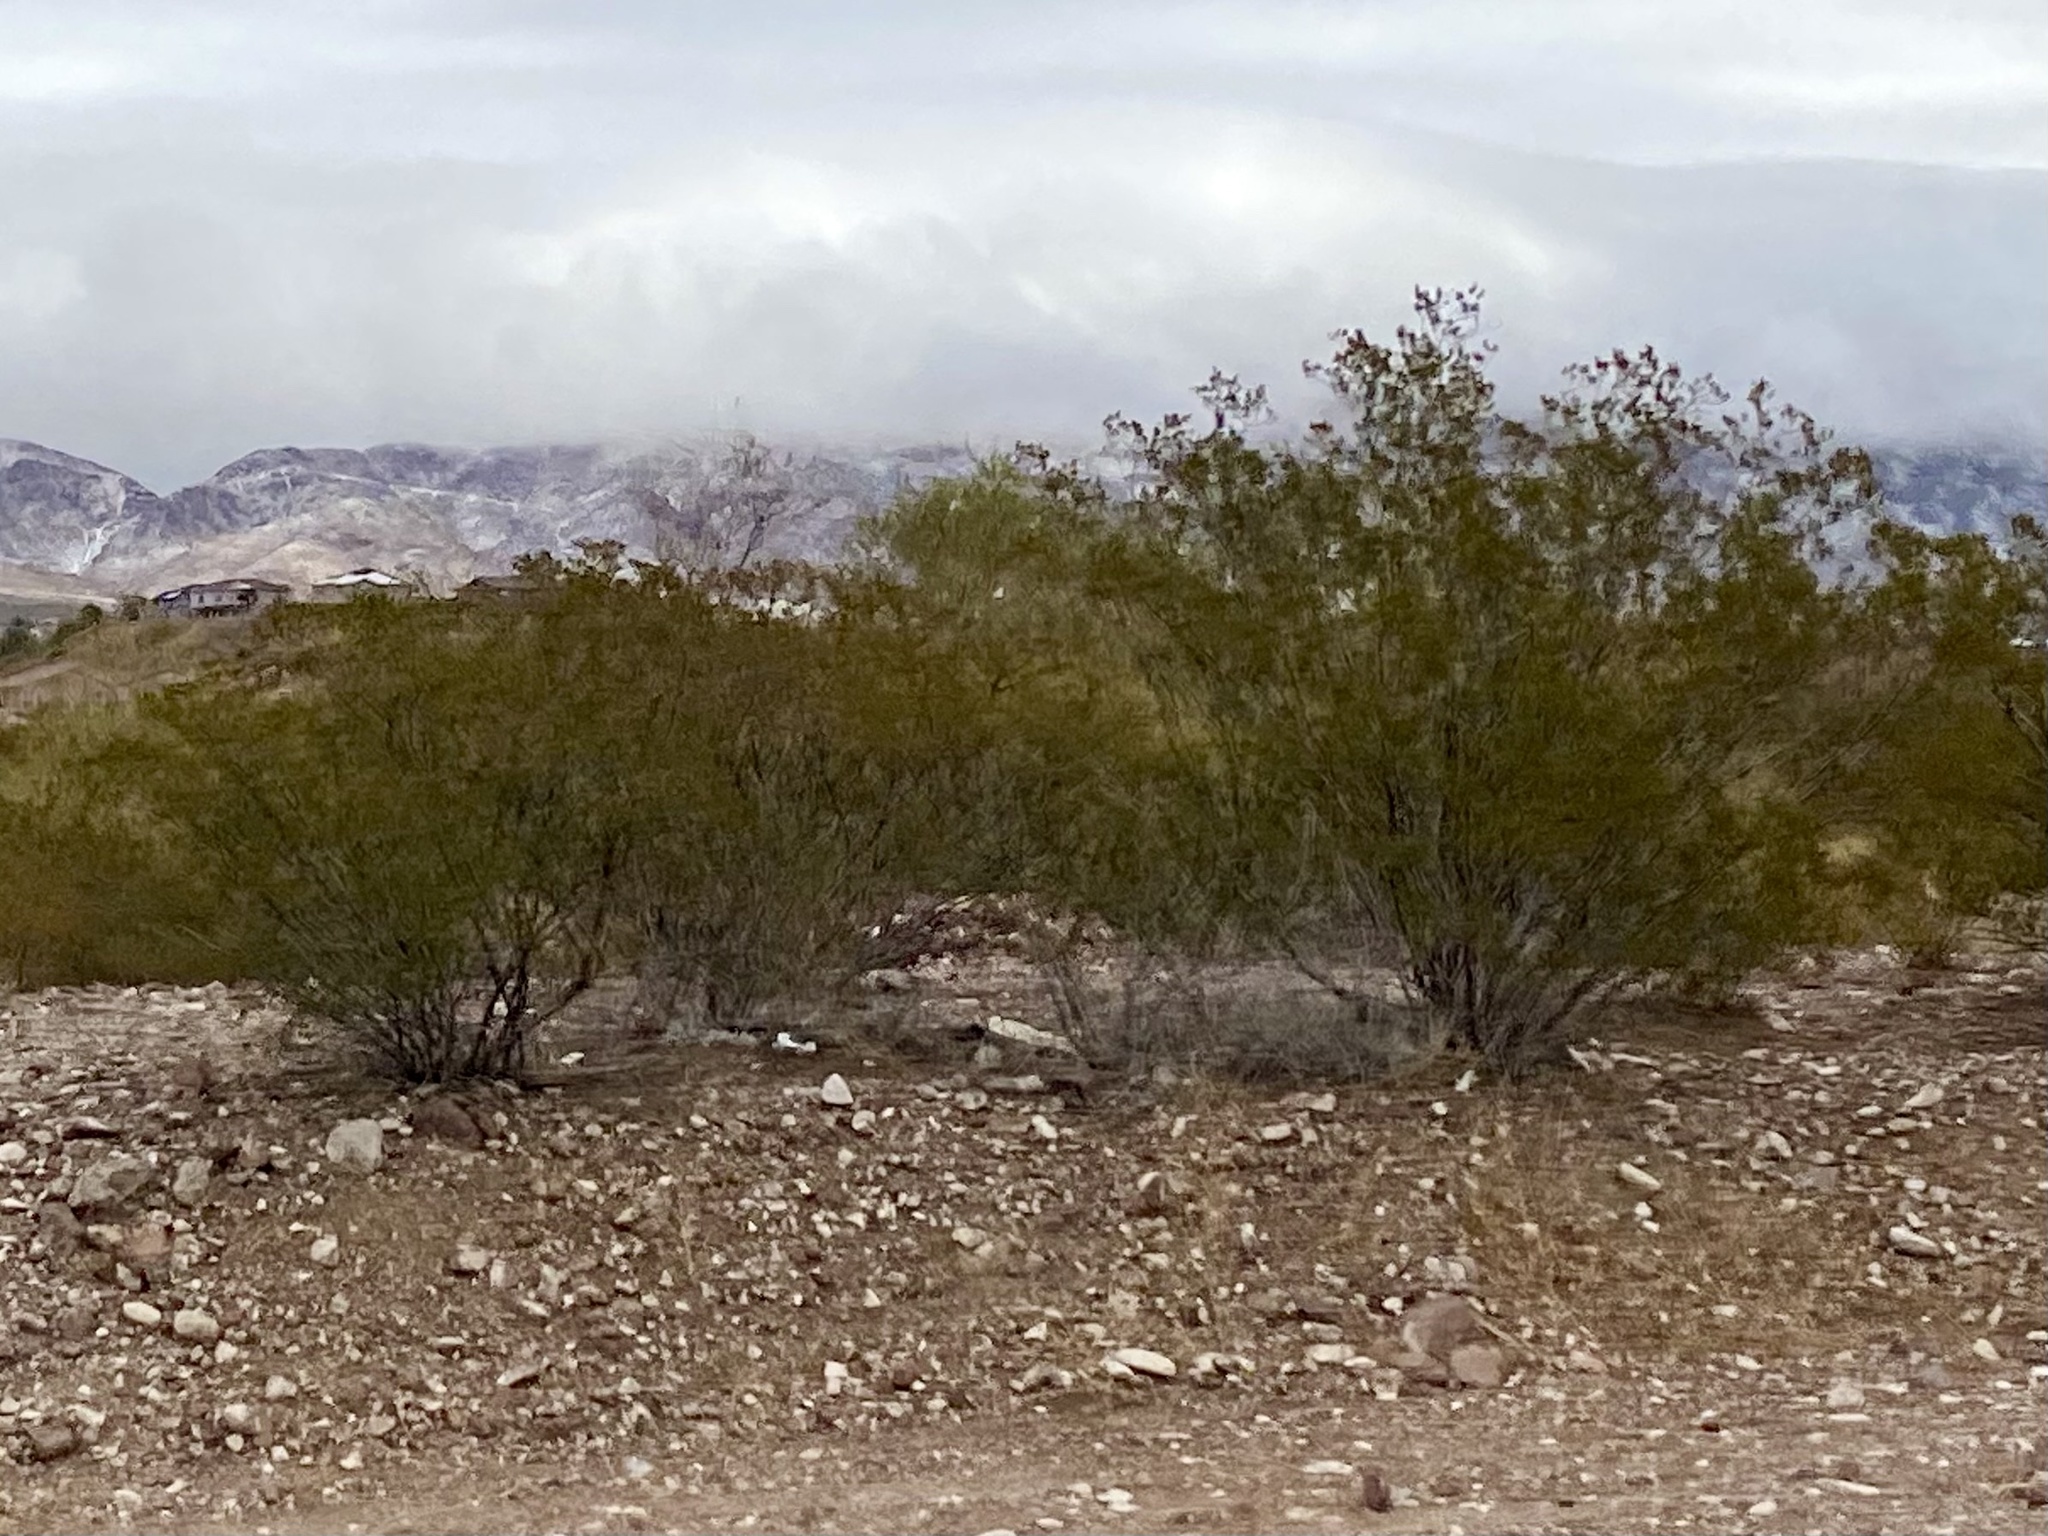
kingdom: Plantae
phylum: Tracheophyta
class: Magnoliopsida
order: Zygophyllales
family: Zygophyllaceae
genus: Larrea
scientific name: Larrea tridentata
